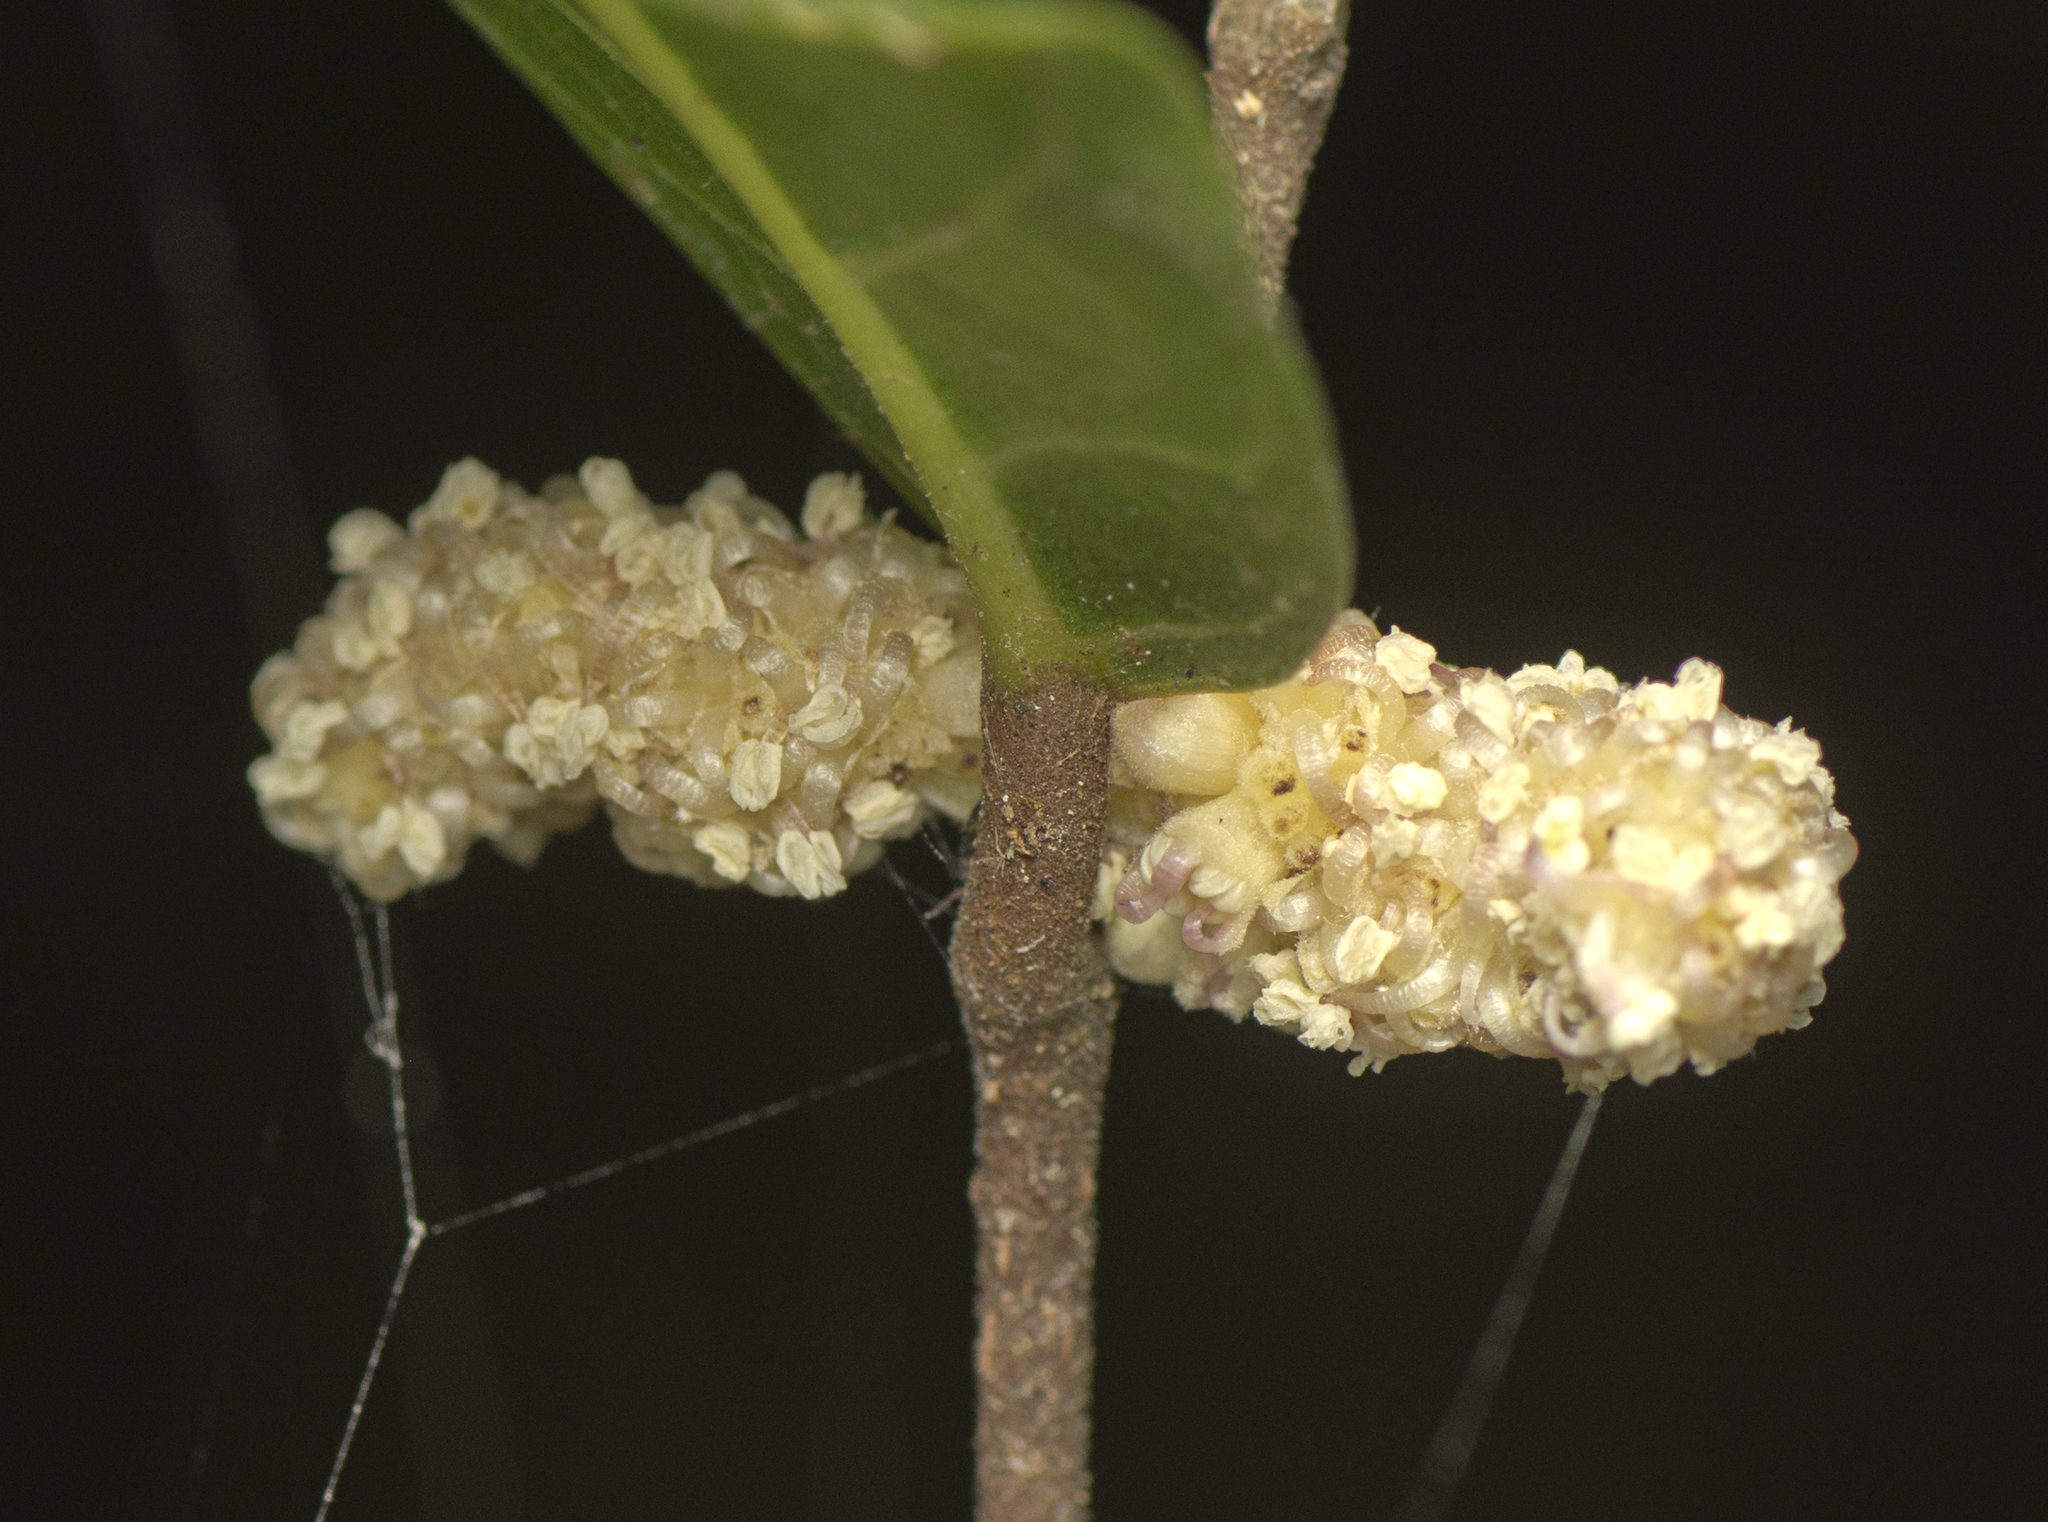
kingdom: Plantae
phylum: Tracheophyta
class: Magnoliopsida
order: Rosales
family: Moraceae
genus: Malaisia
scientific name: Malaisia scandens
